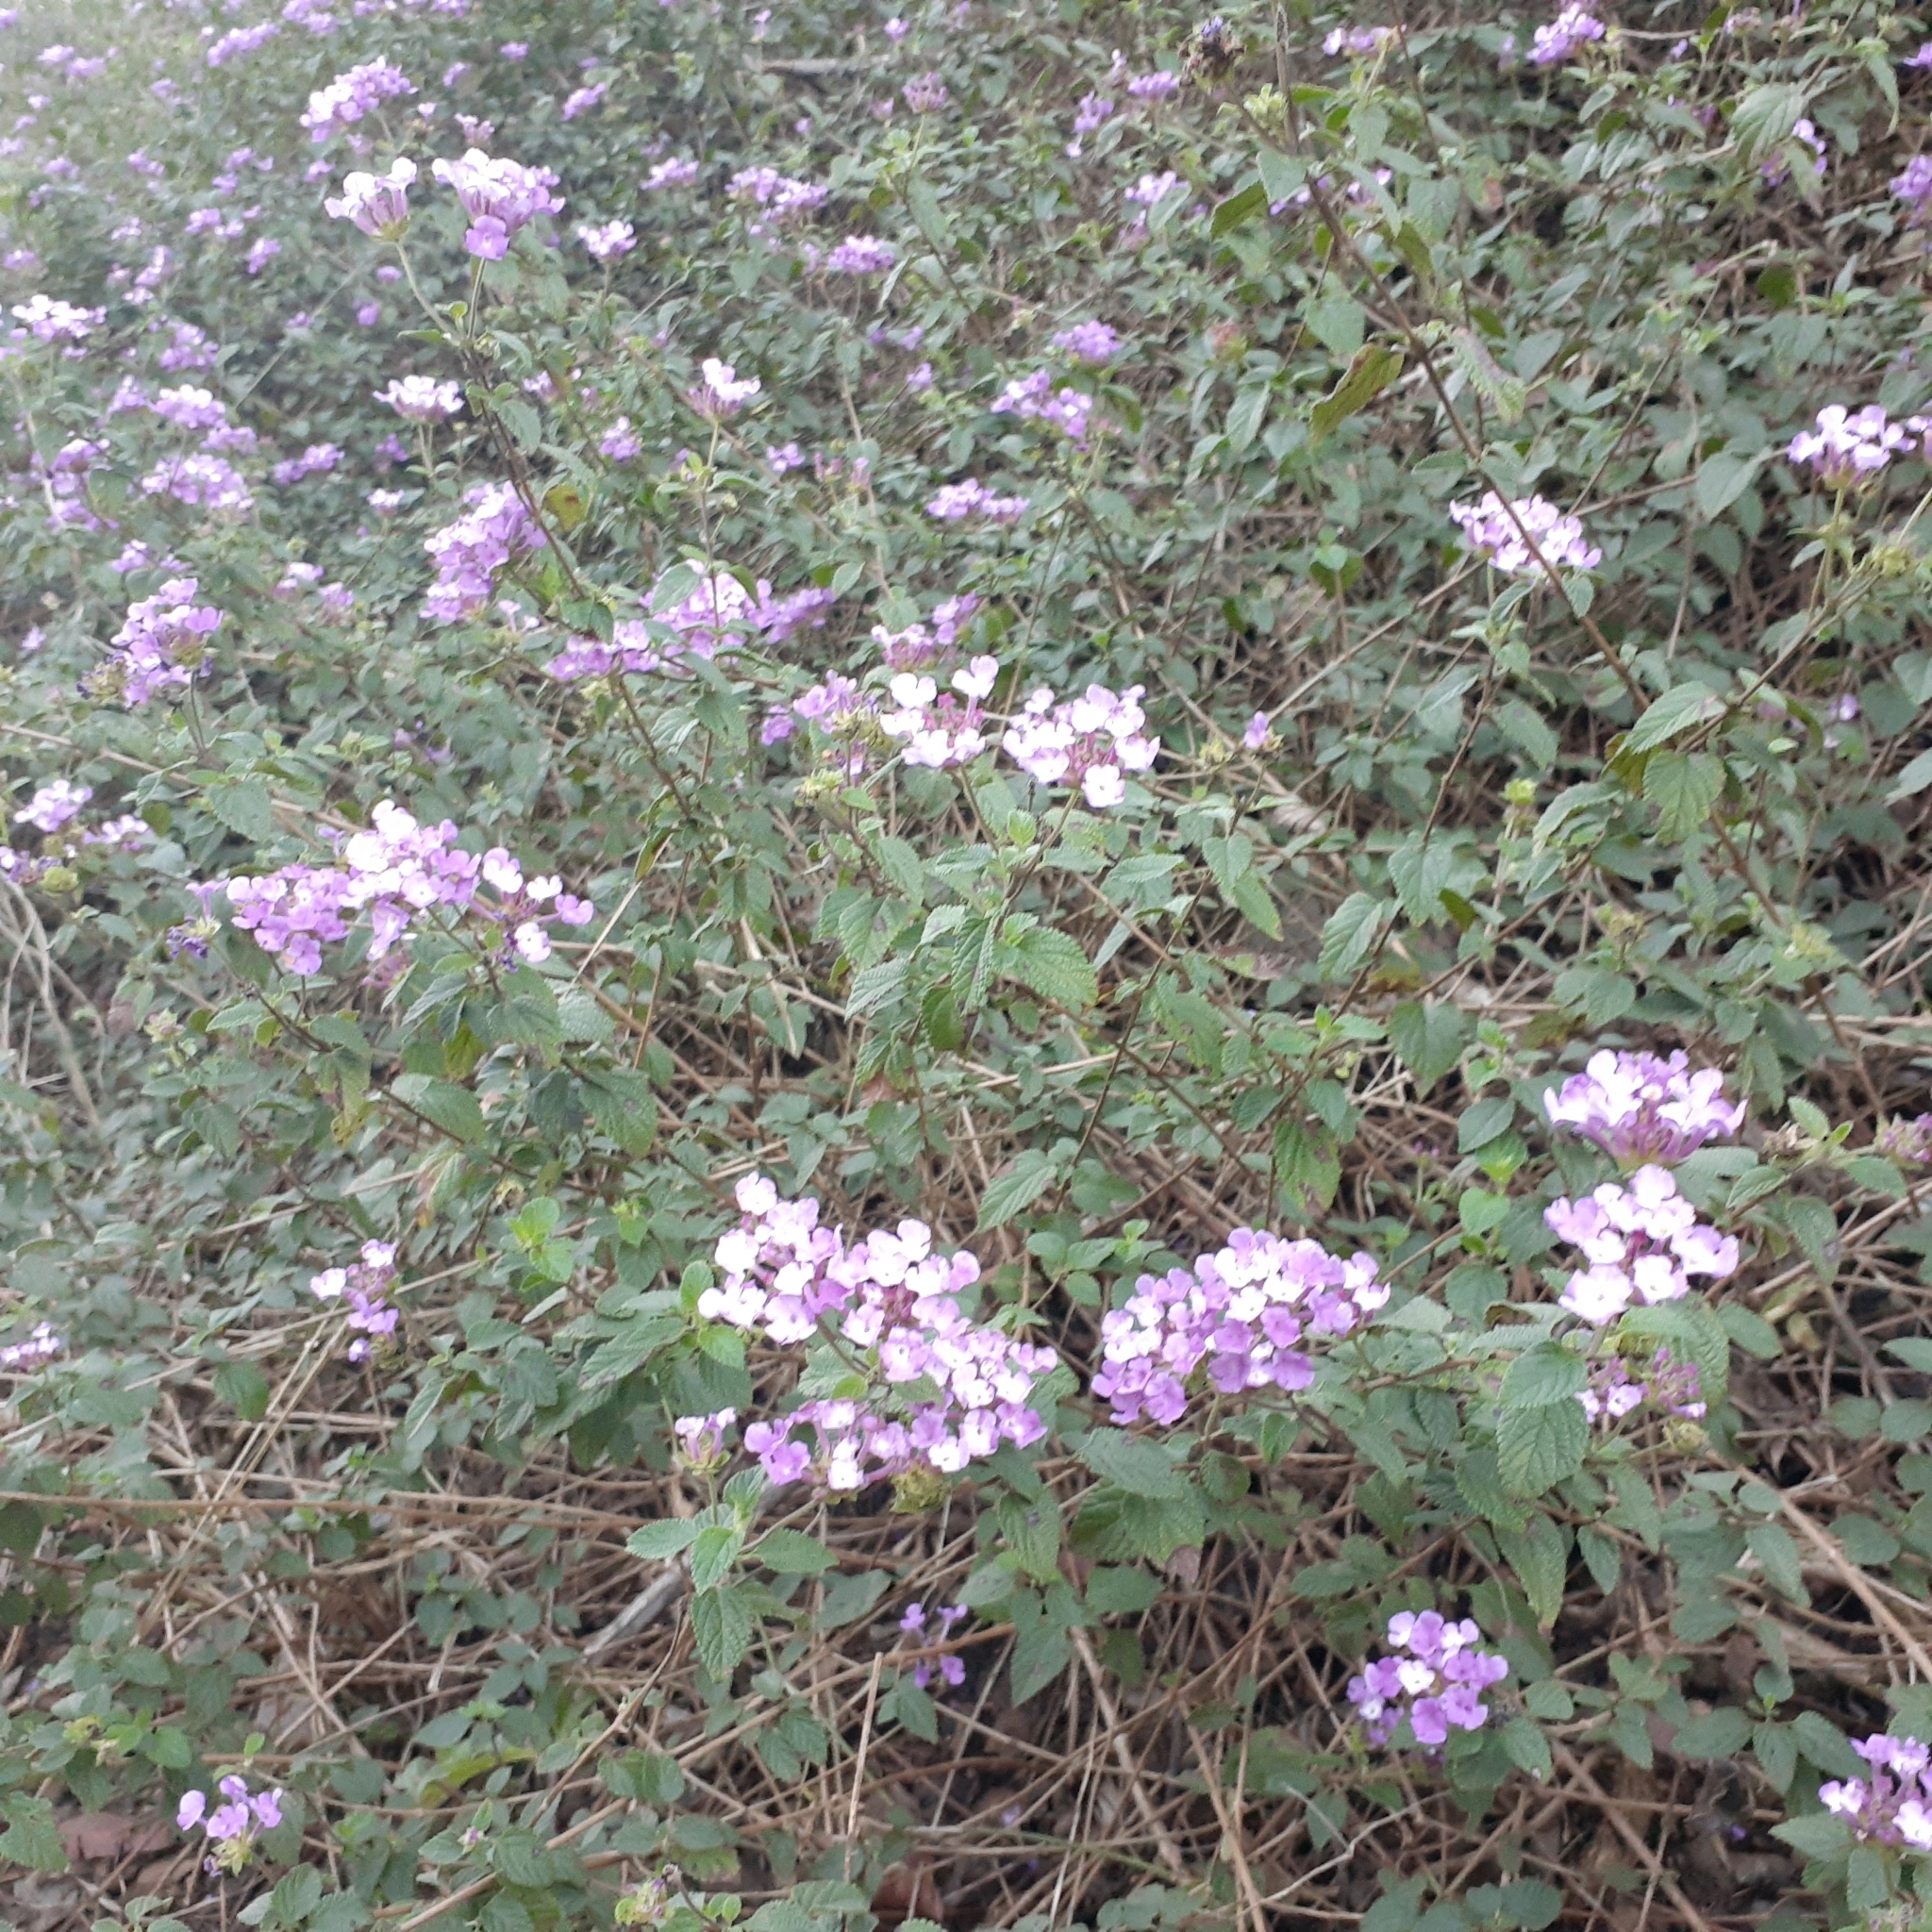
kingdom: Plantae
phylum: Tracheophyta
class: Magnoliopsida
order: Lamiales
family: Verbenaceae
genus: Lantana
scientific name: Lantana montevidensis
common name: Trailing shrubverbena
